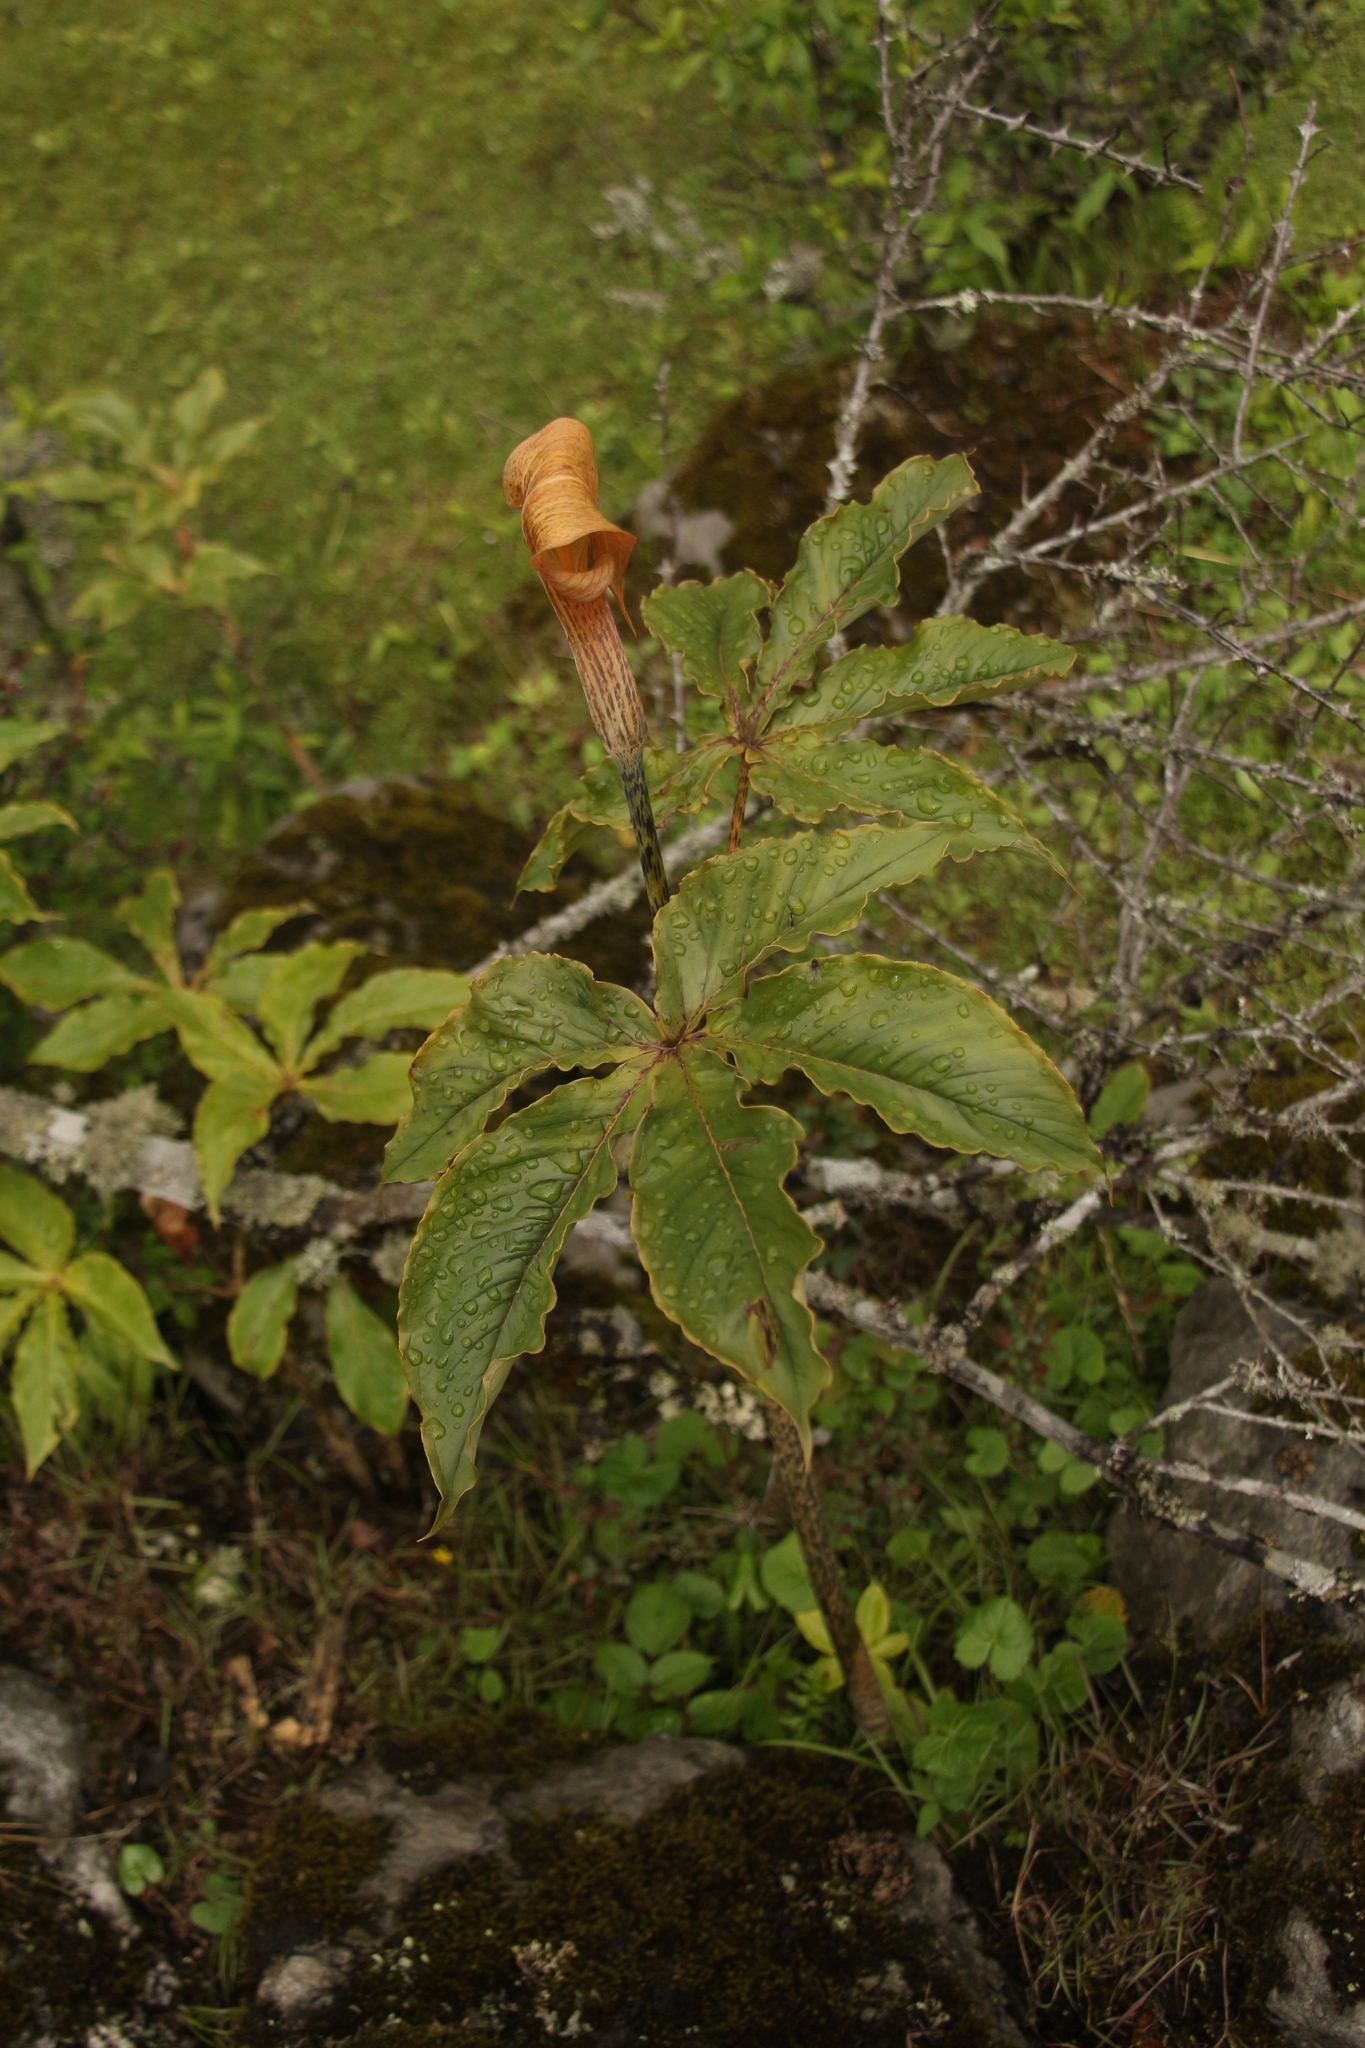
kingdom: Plantae
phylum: Tracheophyta
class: Liliopsida
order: Alismatales
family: Araceae
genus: Arisaema
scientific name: Arisaema nepenthoides
